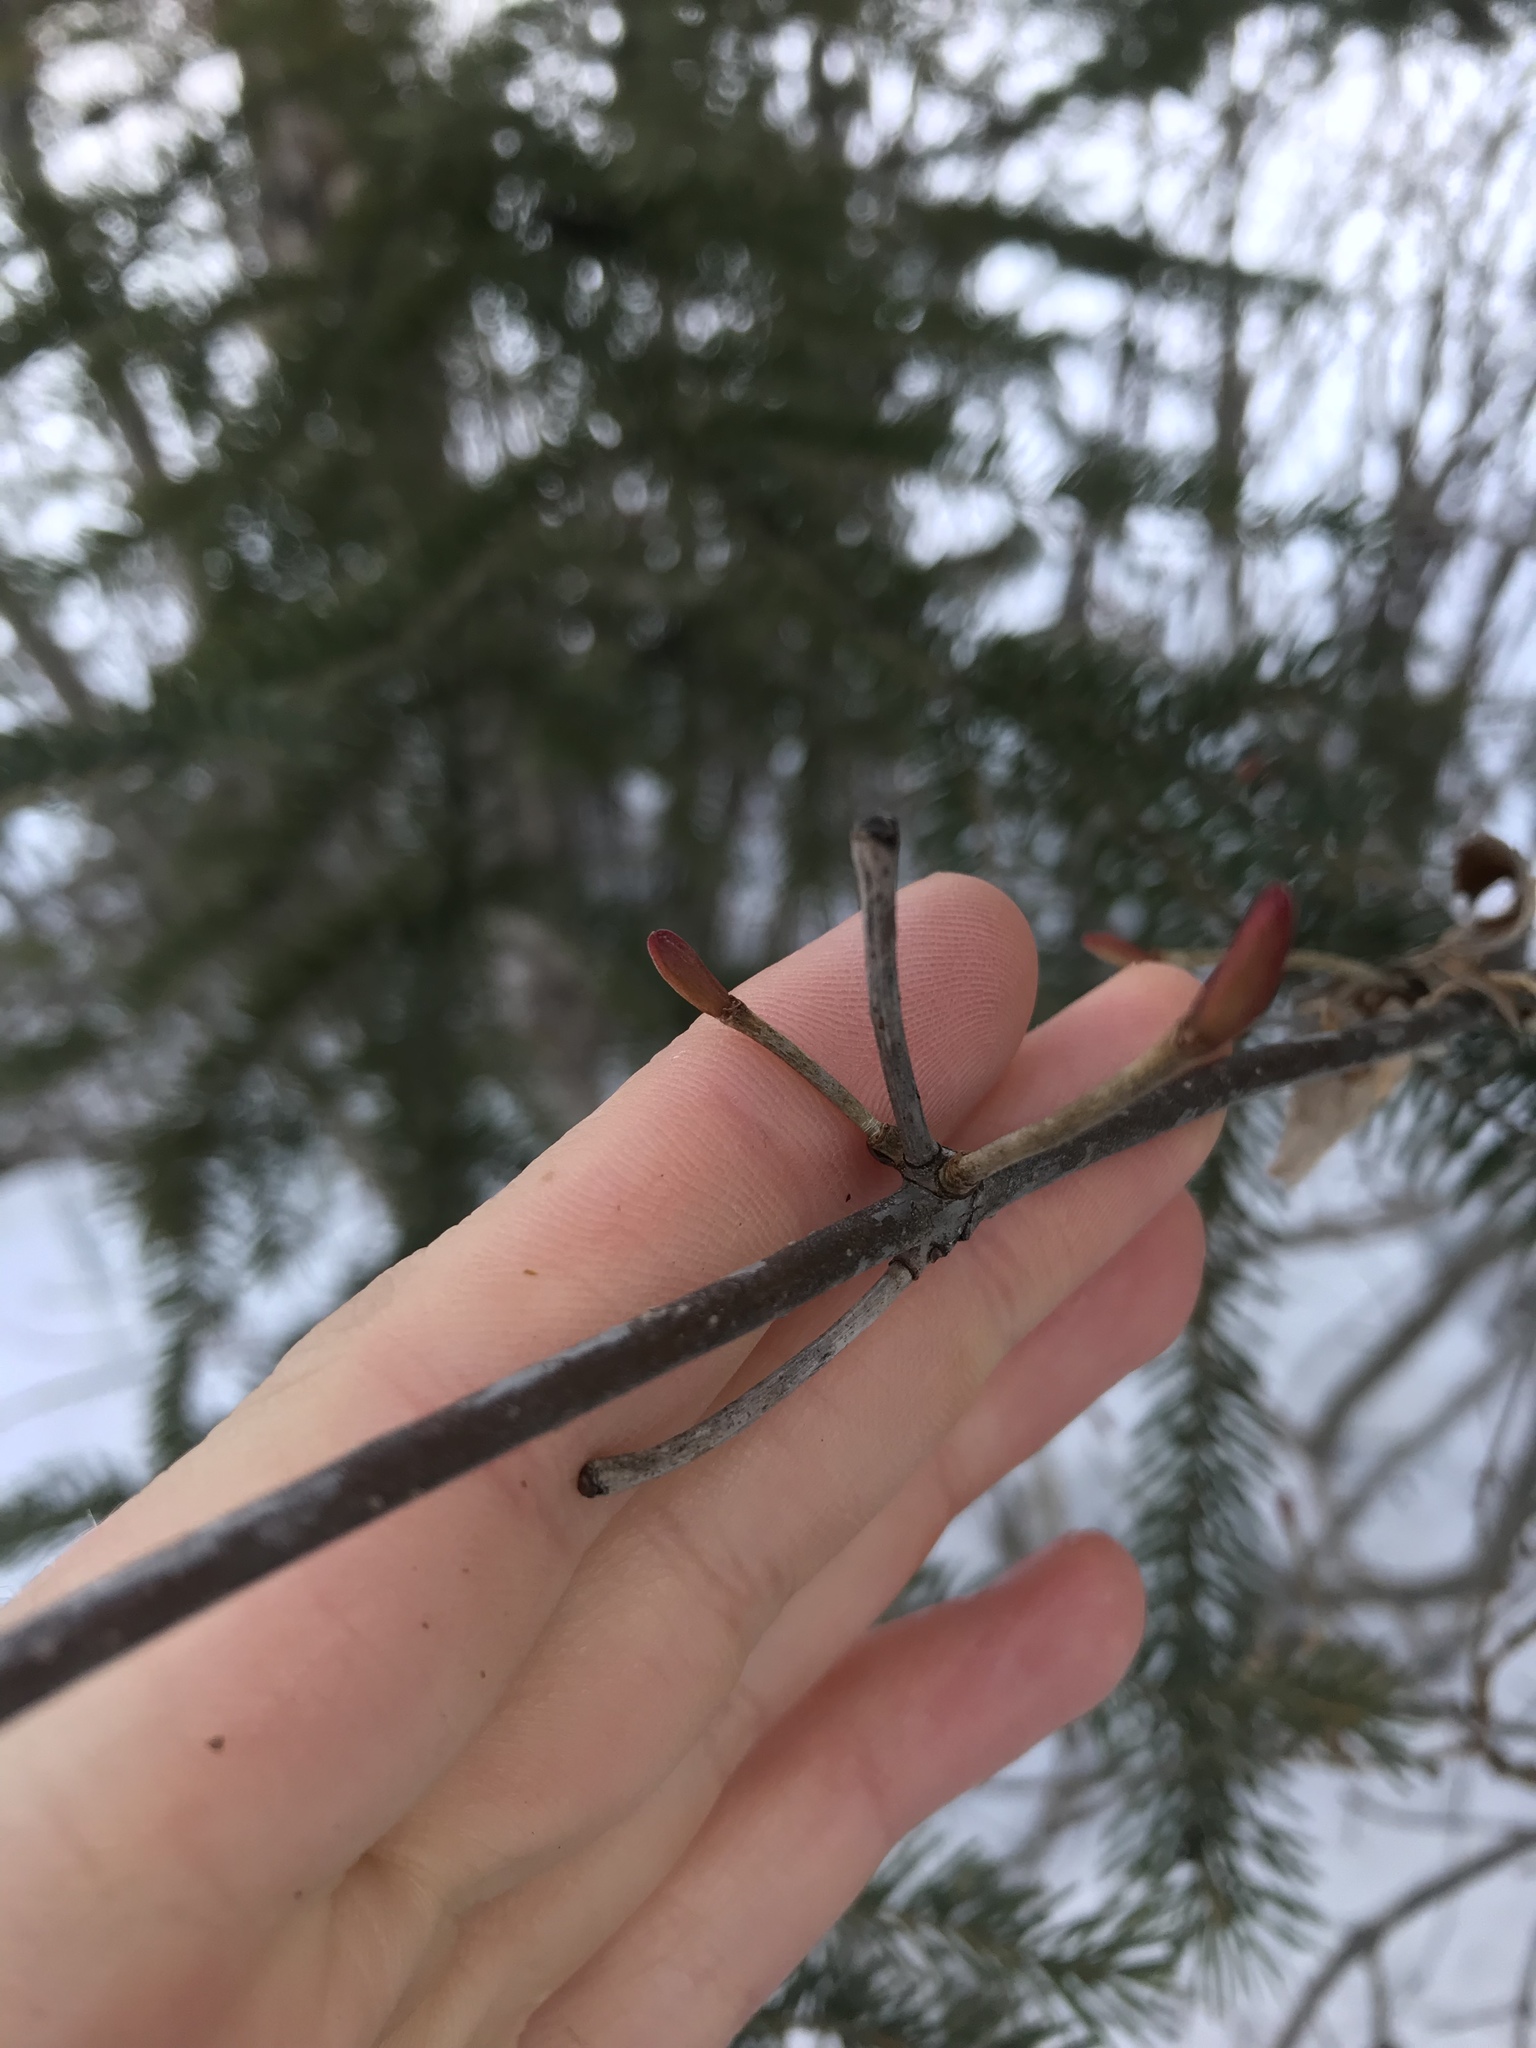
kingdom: Plantae
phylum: Tracheophyta
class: Magnoliopsida
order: Dipsacales
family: Viburnaceae
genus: Viburnum
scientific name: Viburnum edule
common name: Mooseberry
